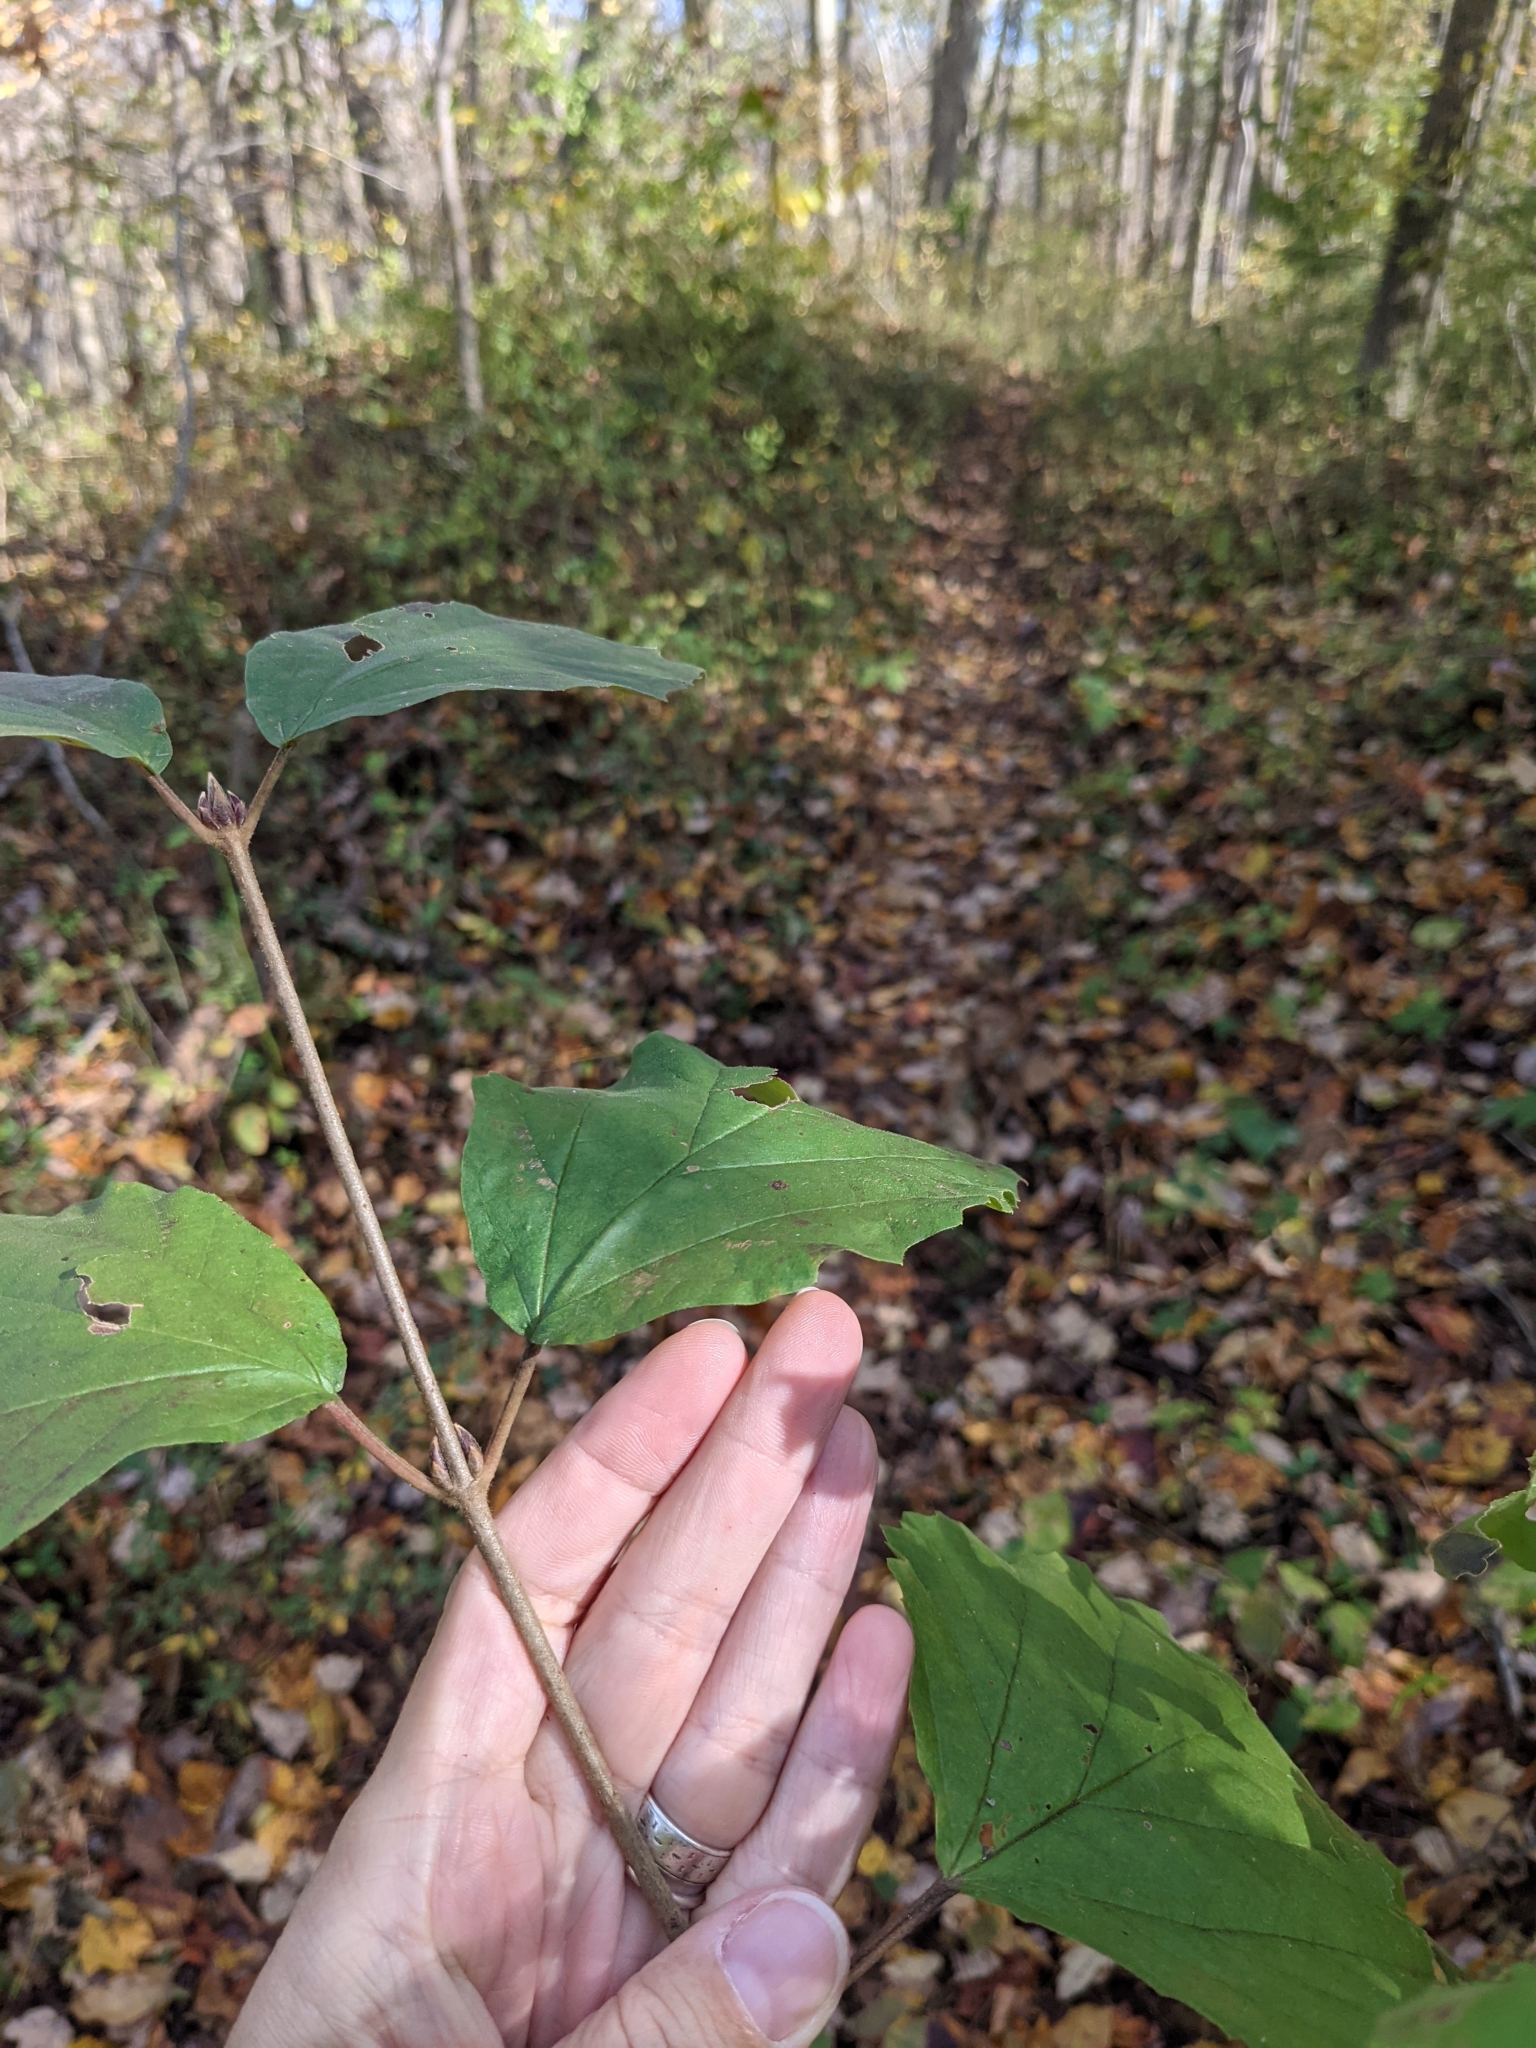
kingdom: Plantae
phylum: Tracheophyta
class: Magnoliopsida
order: Dipsacales
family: Viburnaceae
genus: Viburnum
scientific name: Viburnum dentatum
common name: Arrow-wood
